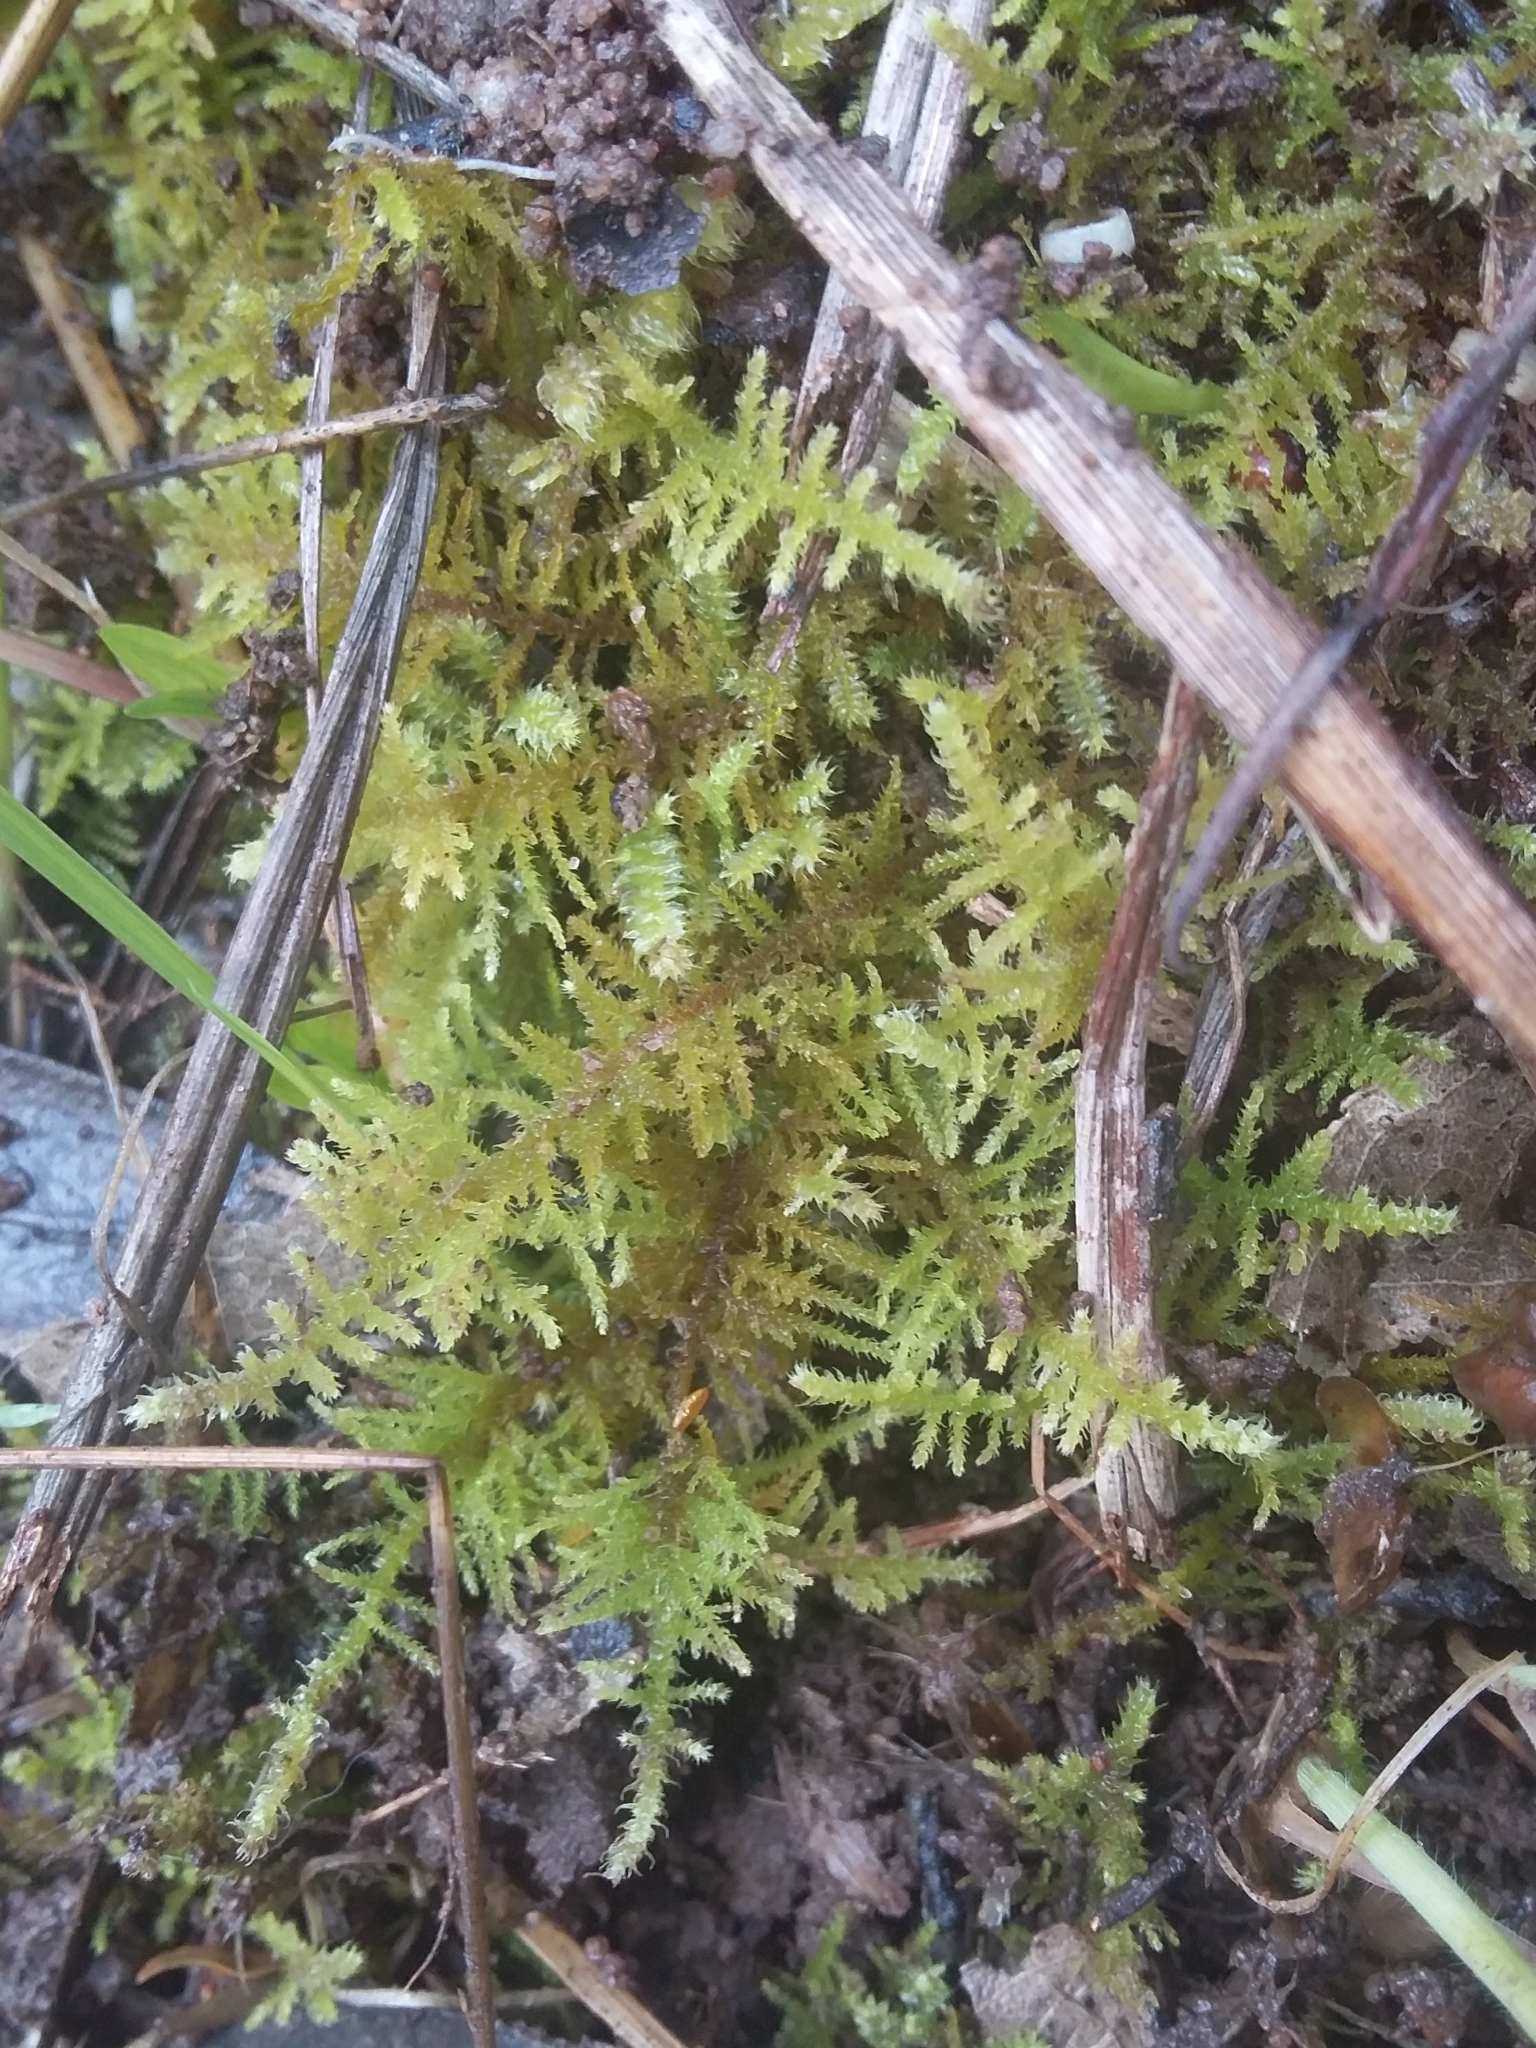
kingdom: Plantae
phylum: Bryophyta
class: Bryopsida
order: Hypnales
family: Thuidiaceae
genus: Thuidiopsis
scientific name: Thuidiopsis sparsa
